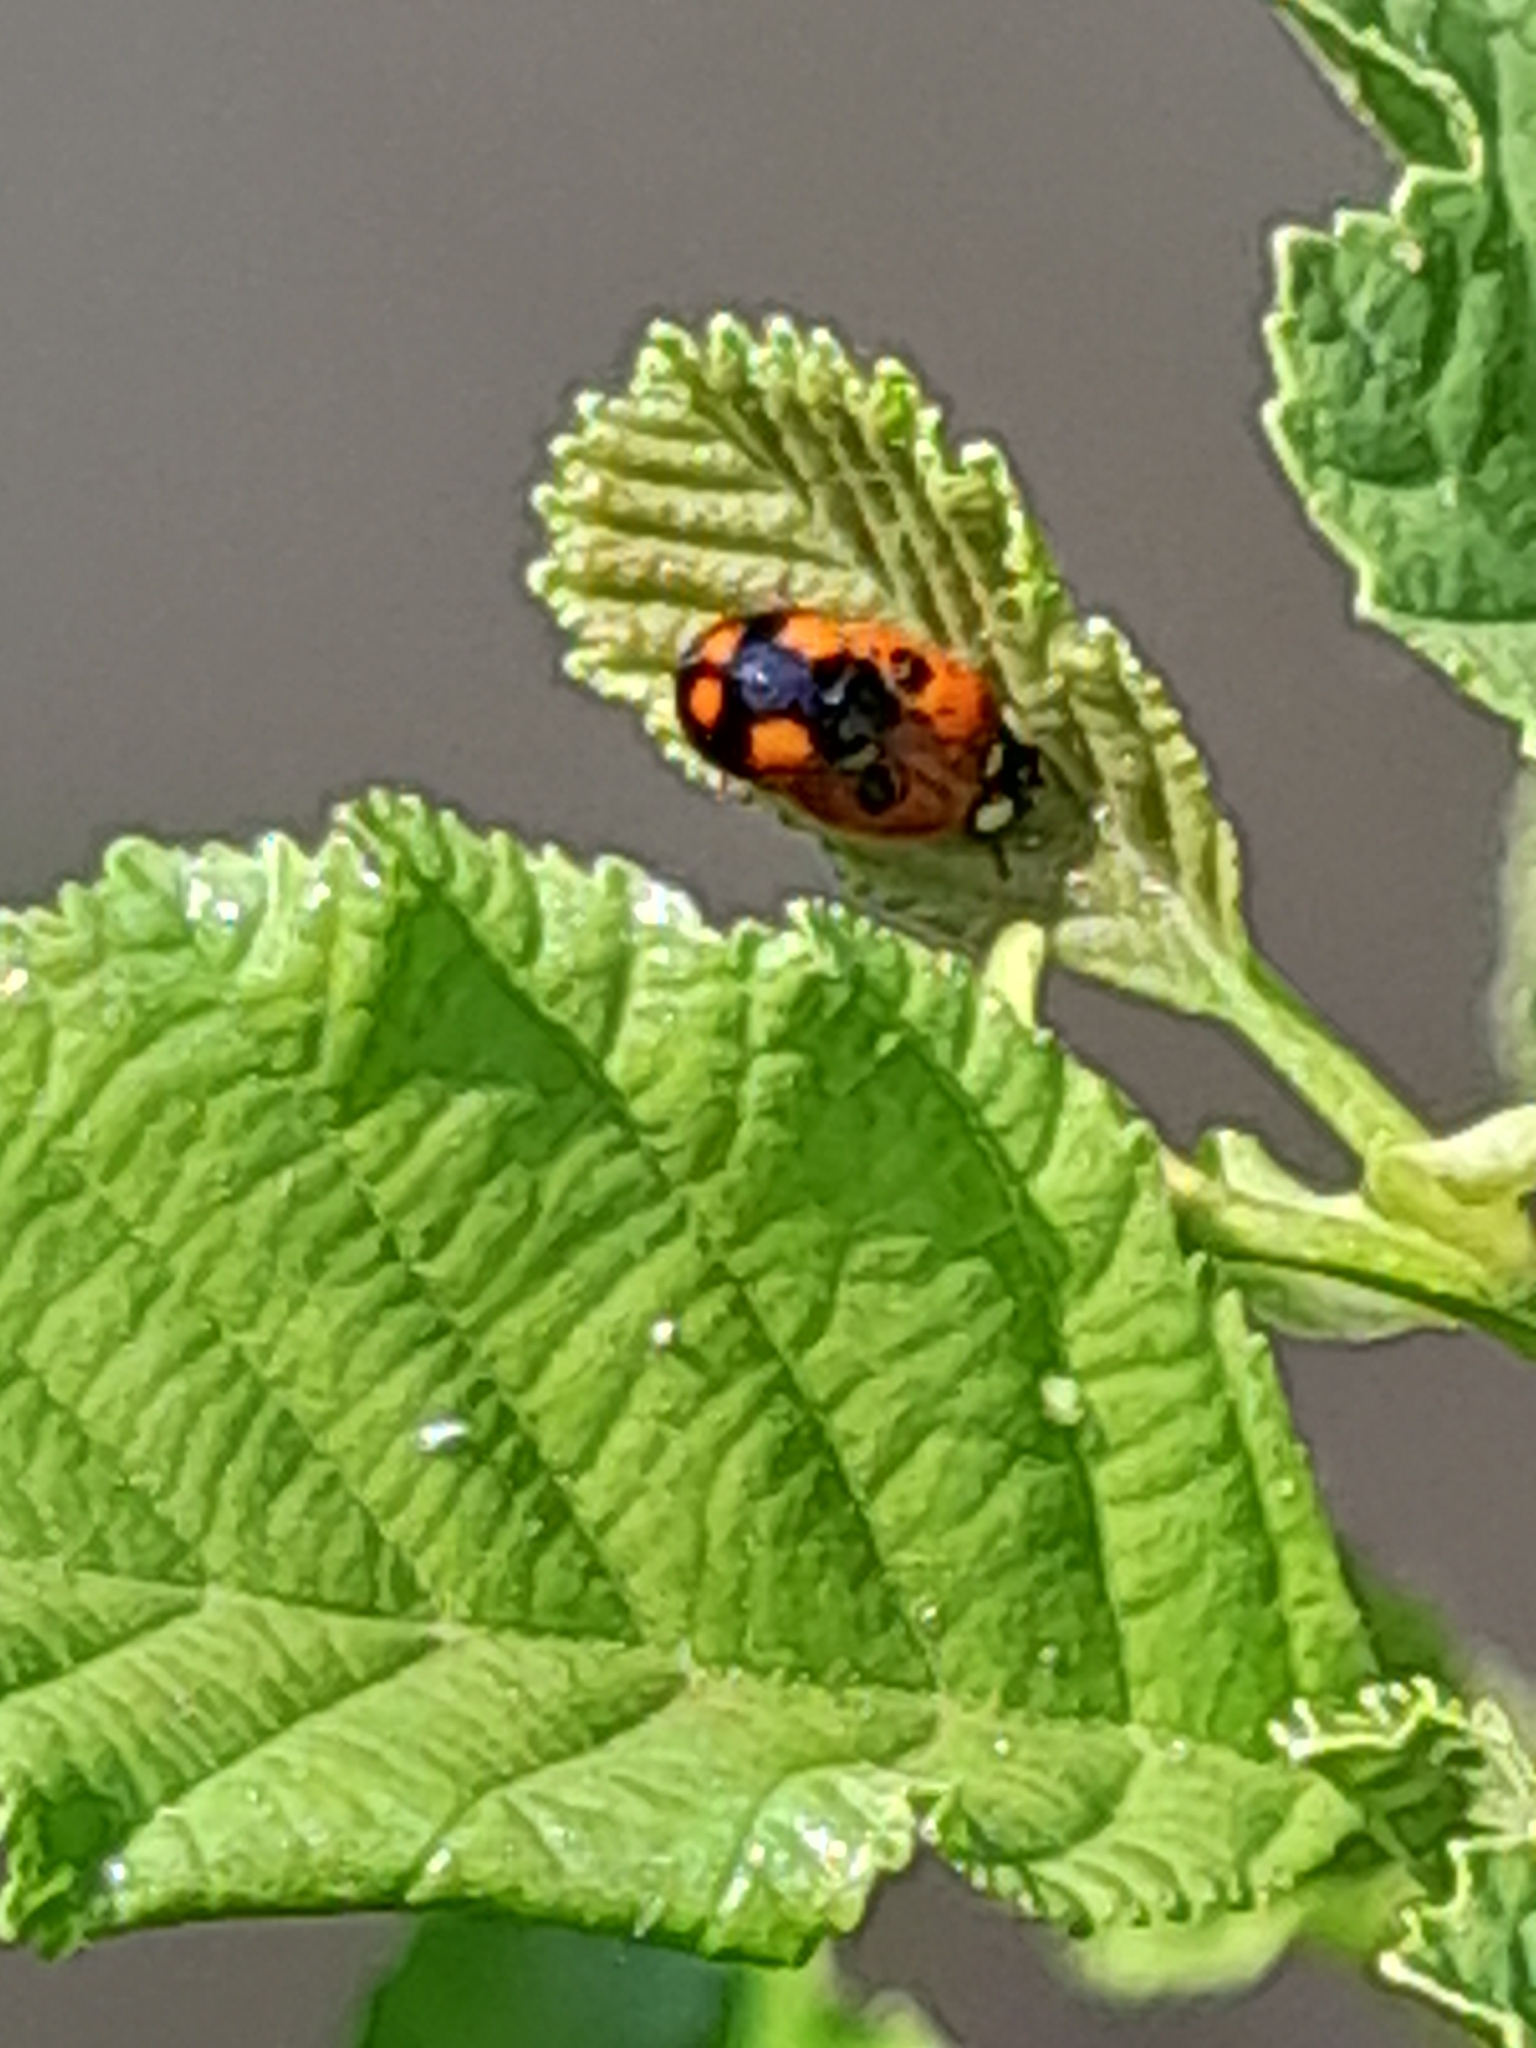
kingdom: Animalia
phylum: Arthropoda
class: Insecta
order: Coleoptera
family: Coccinellidae
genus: Adalia
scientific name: Adalia bipunctata
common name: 2-spot ladybird
